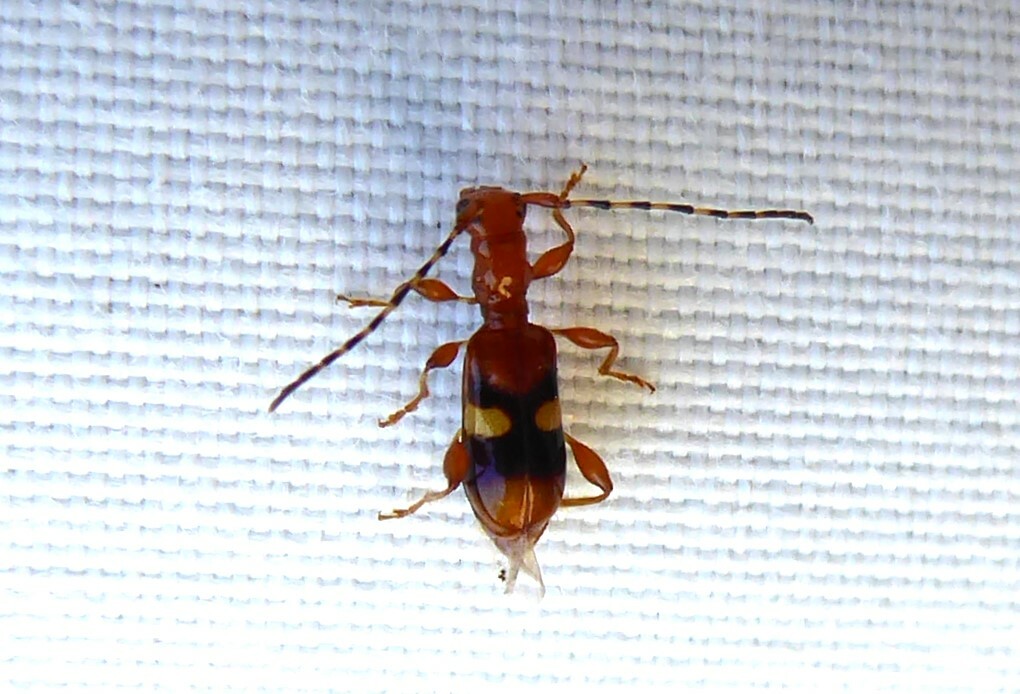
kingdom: Animalia
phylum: Arthropoda
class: Insecta
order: Coleoptera
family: Cerambycidae
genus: Zorion
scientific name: Zorion australe
